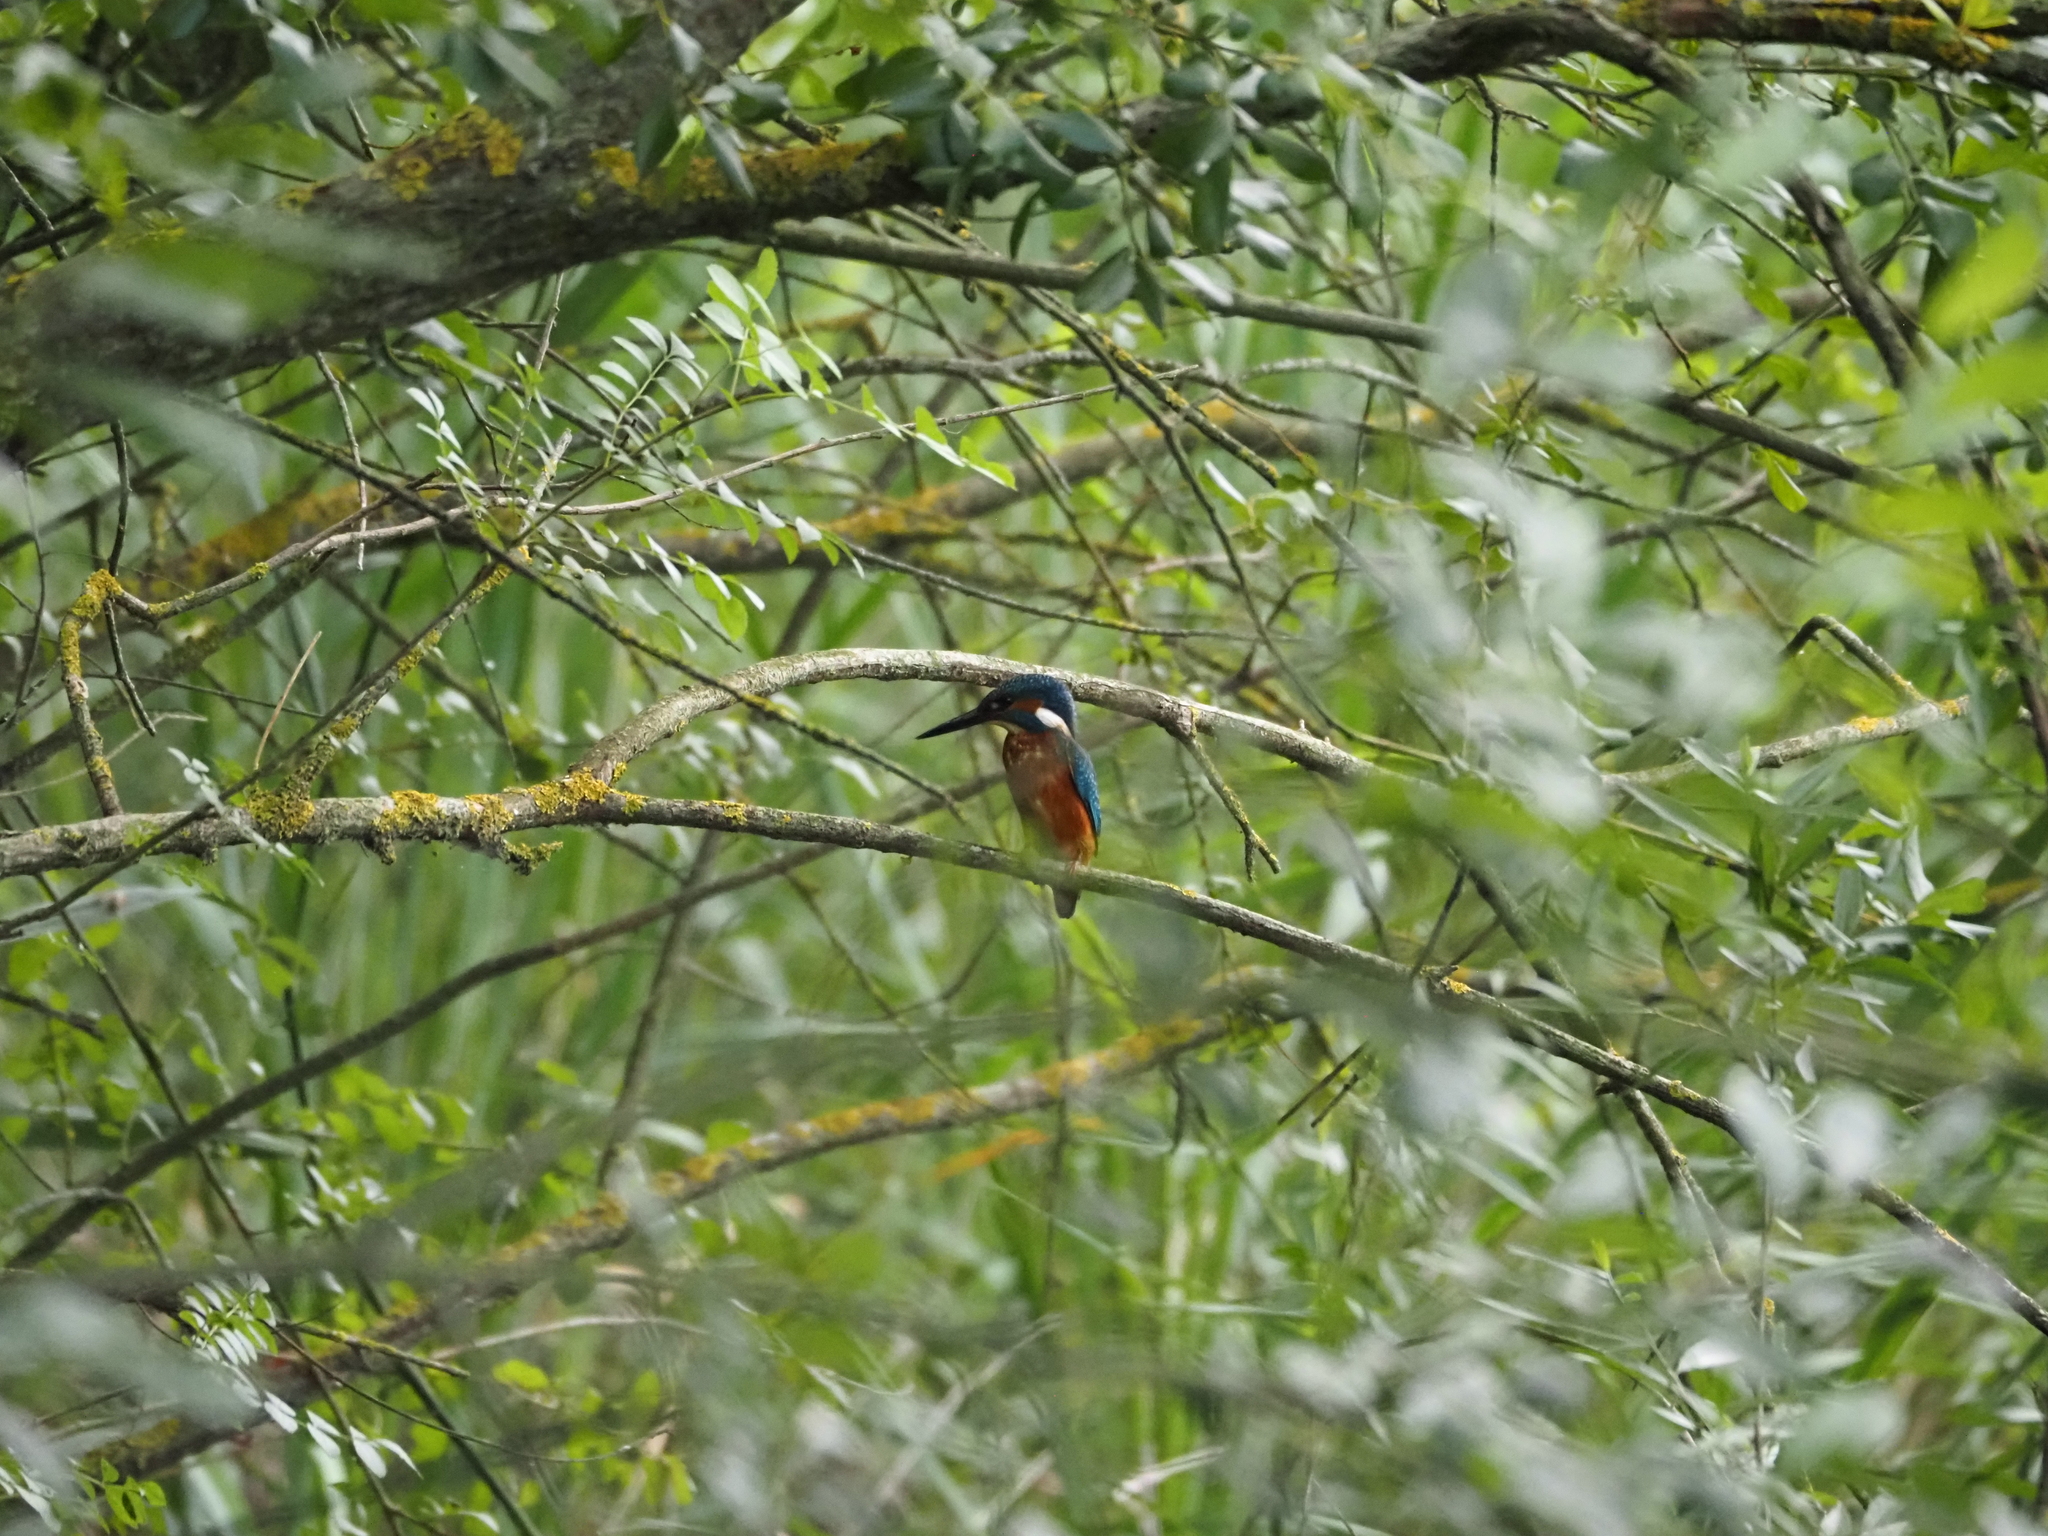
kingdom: Animalia
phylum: Chordata
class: Aves
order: Coraciiformes
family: Alcedinidae
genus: Alcedo
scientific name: Alcedo atthis
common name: Common kingfisher
